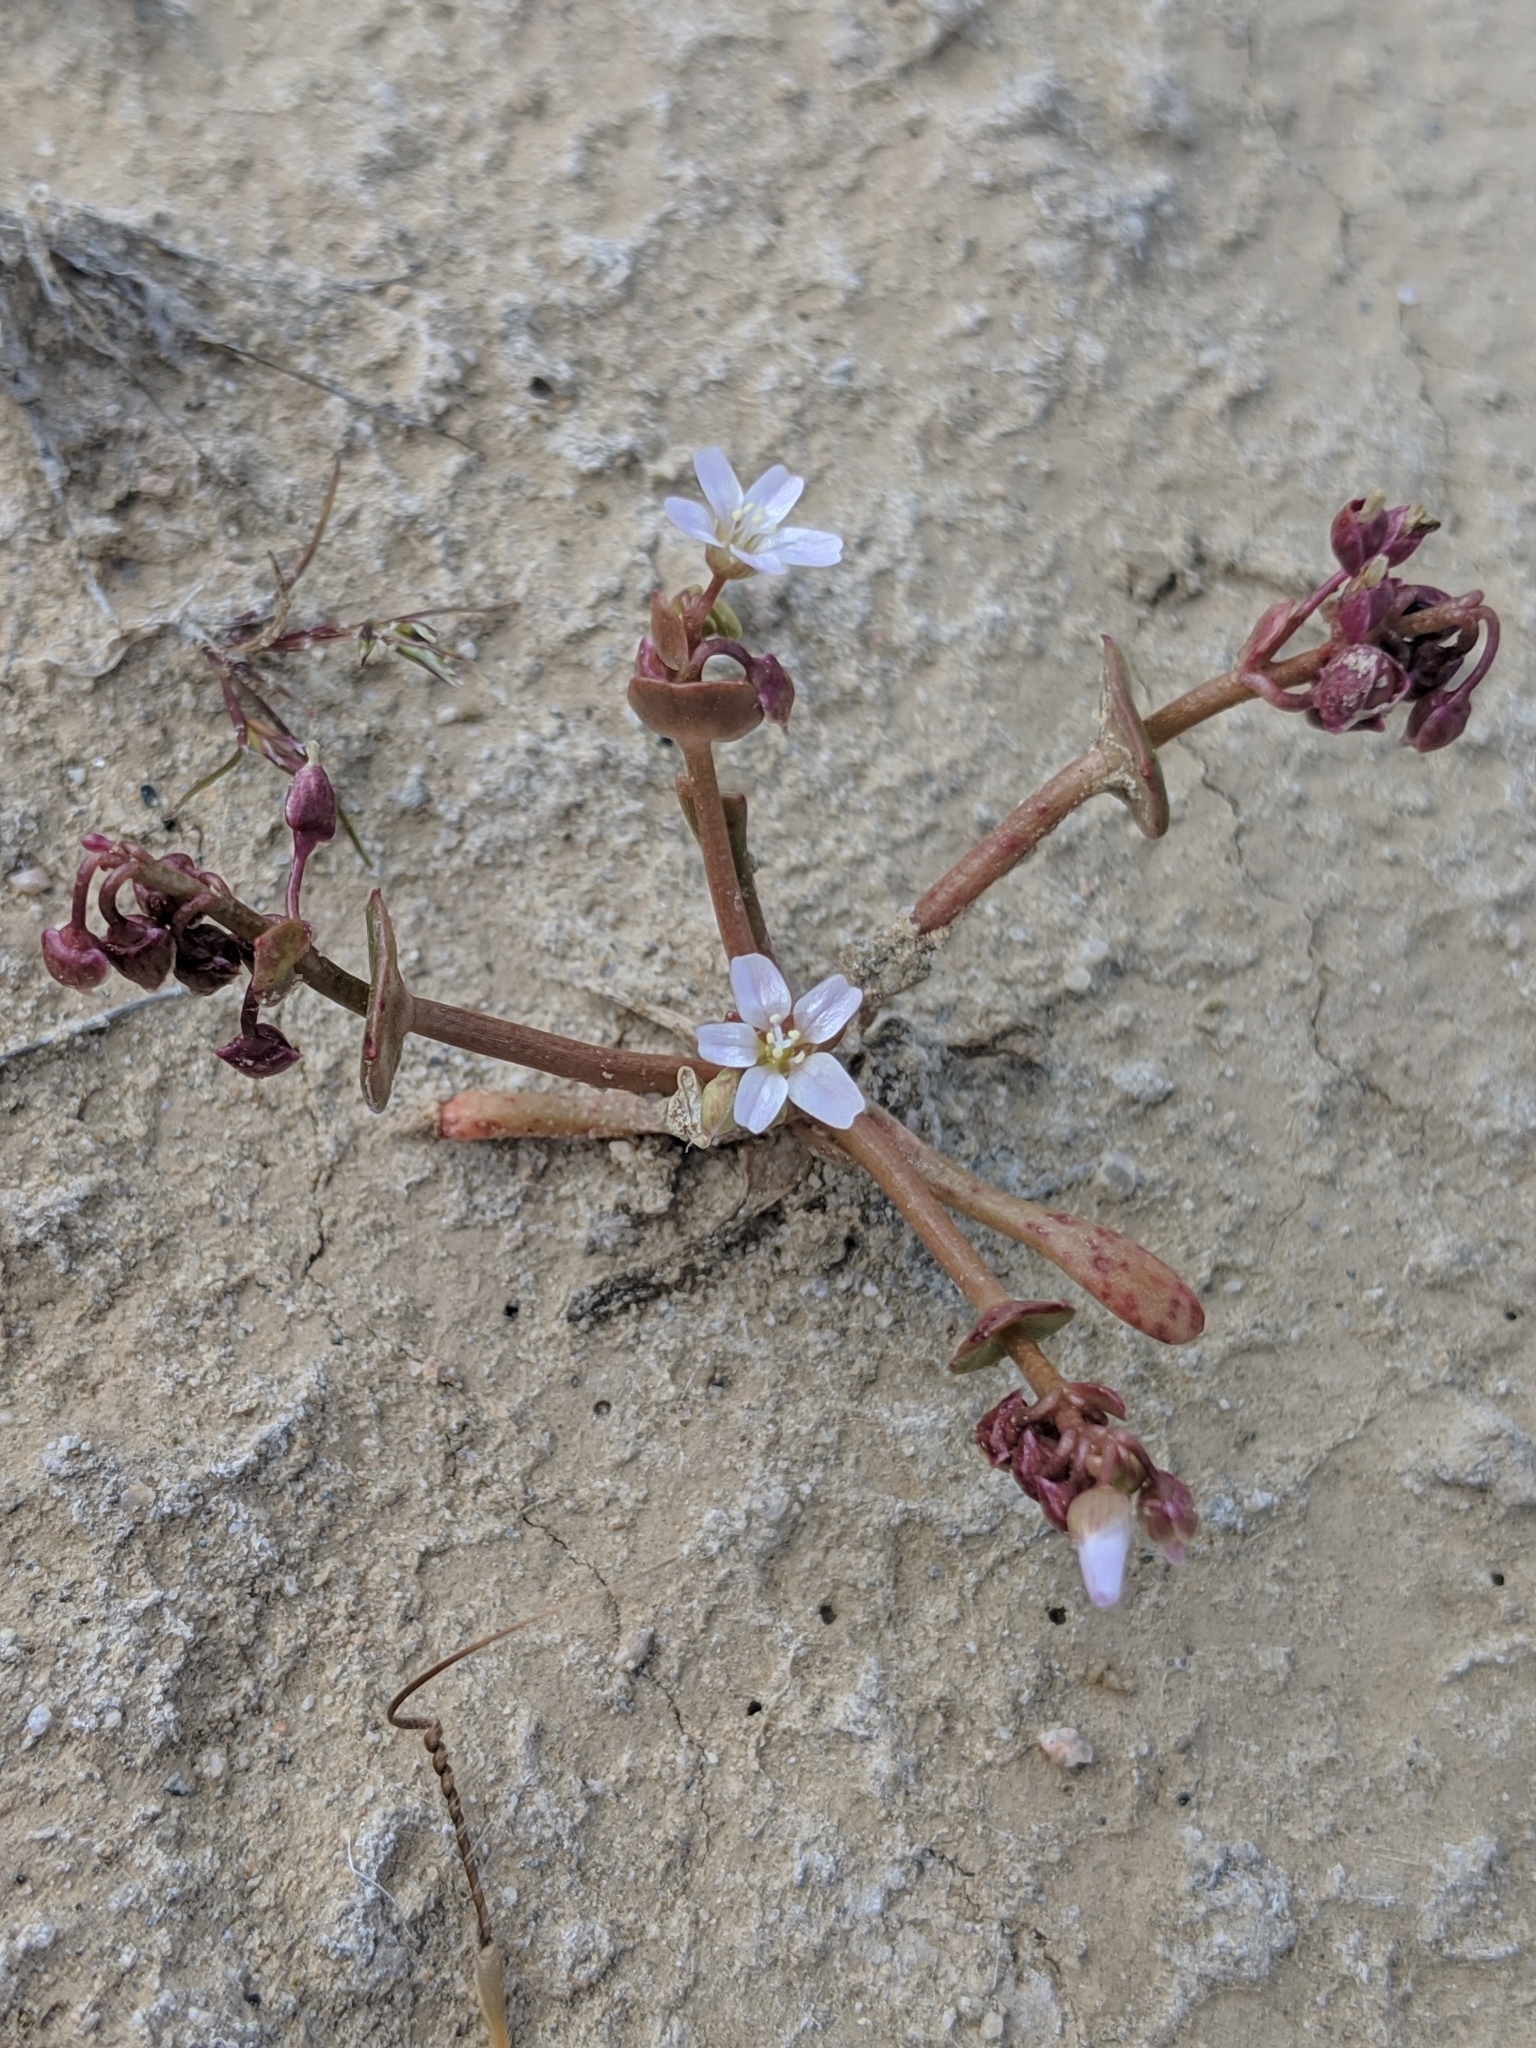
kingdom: Plantae
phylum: Tracheophyta
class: Magnoliopsida
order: Caryophyllales
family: Montiaceae
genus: Claytonia
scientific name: Claytonia parviflora
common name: Indian-lettuce
